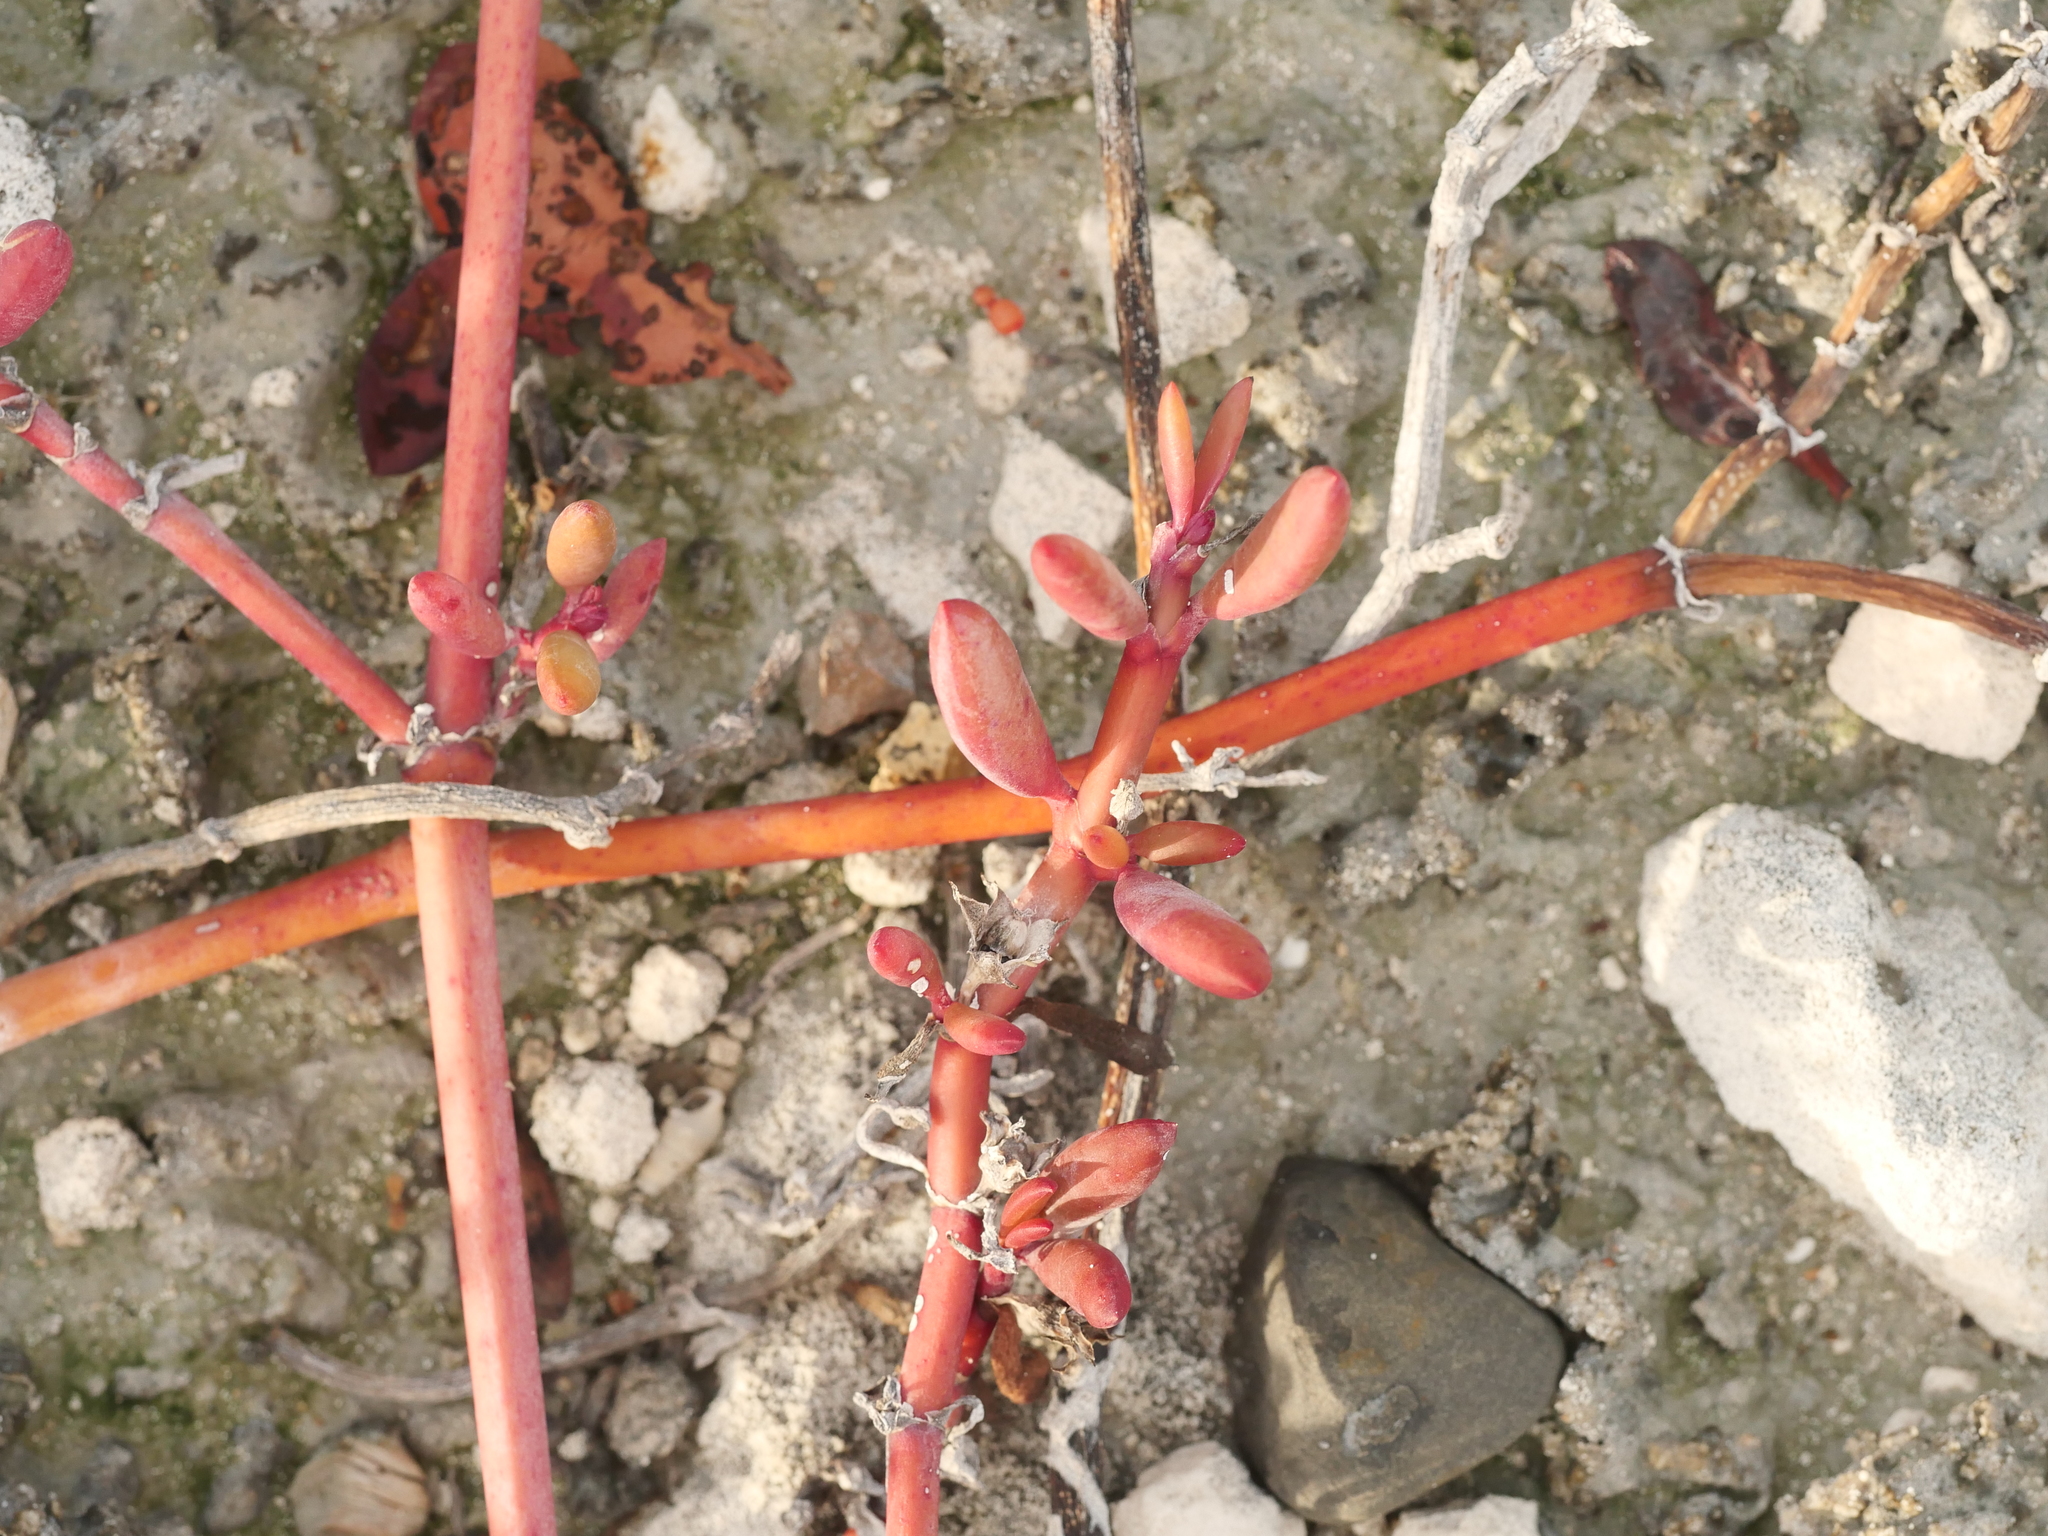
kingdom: Plantae
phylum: Tracheophyta
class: Magnoliopsida
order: Caryophyllales
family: Aizoaceae
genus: Sesuvium
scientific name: Sesuvium portulacastrum
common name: Sea-purslane
